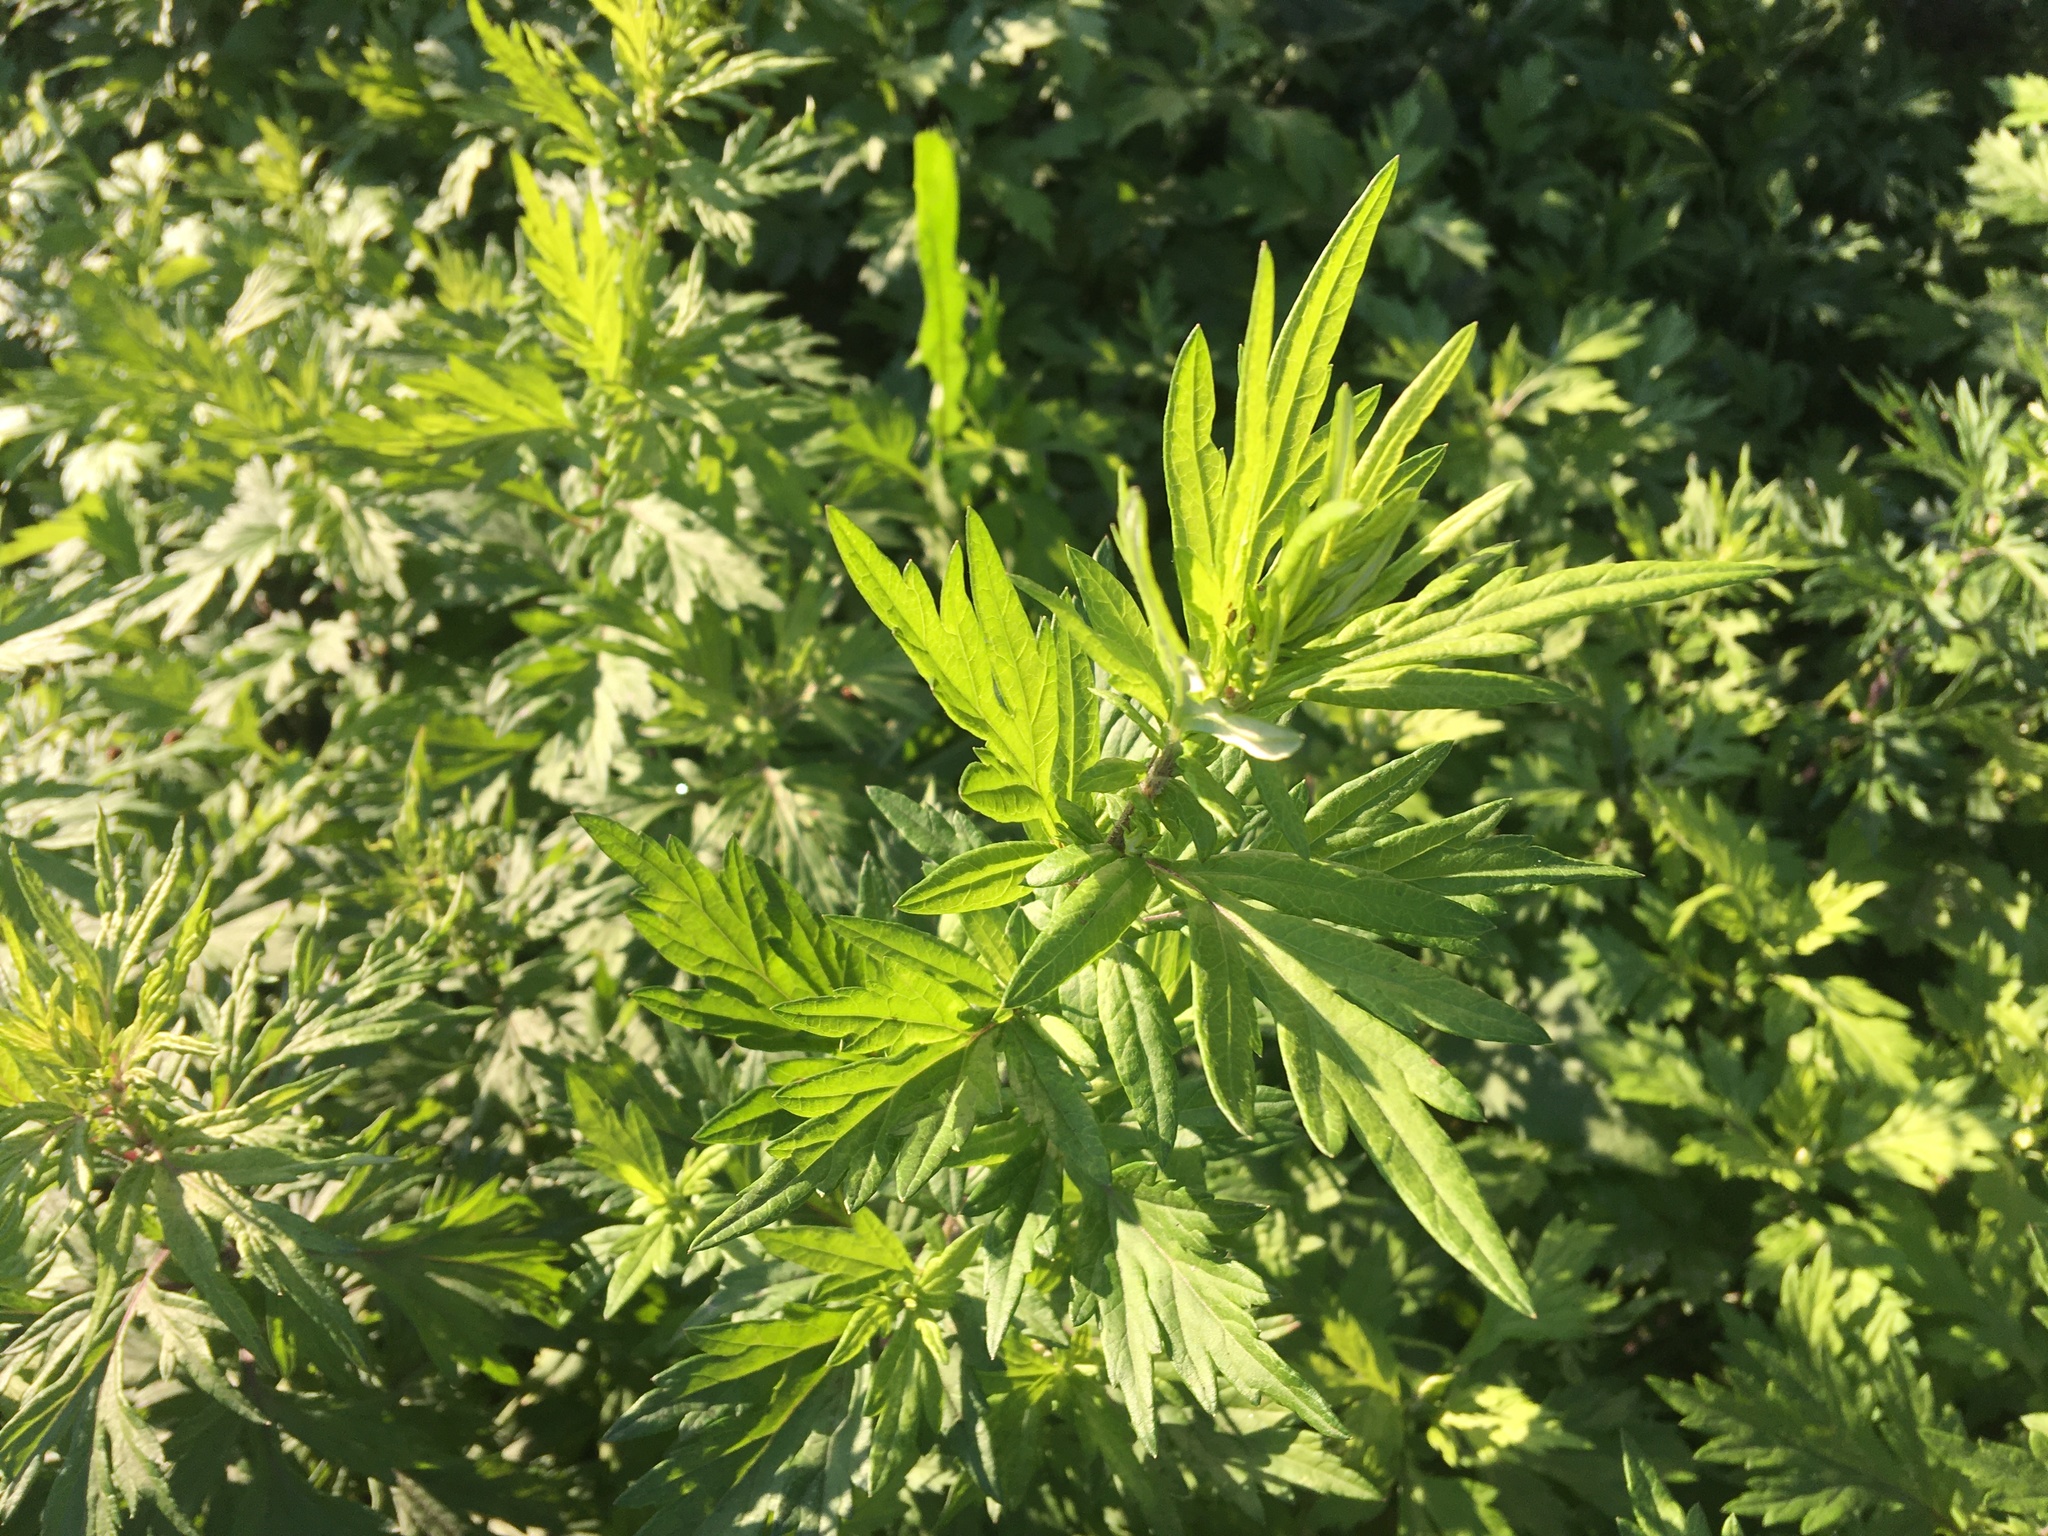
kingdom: Plantae
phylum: Tracheophyta
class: Magnoliopsida
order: Asterales
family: Asteraceae
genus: Artemisia
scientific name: Artemisia vulgaris
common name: Mugwort
